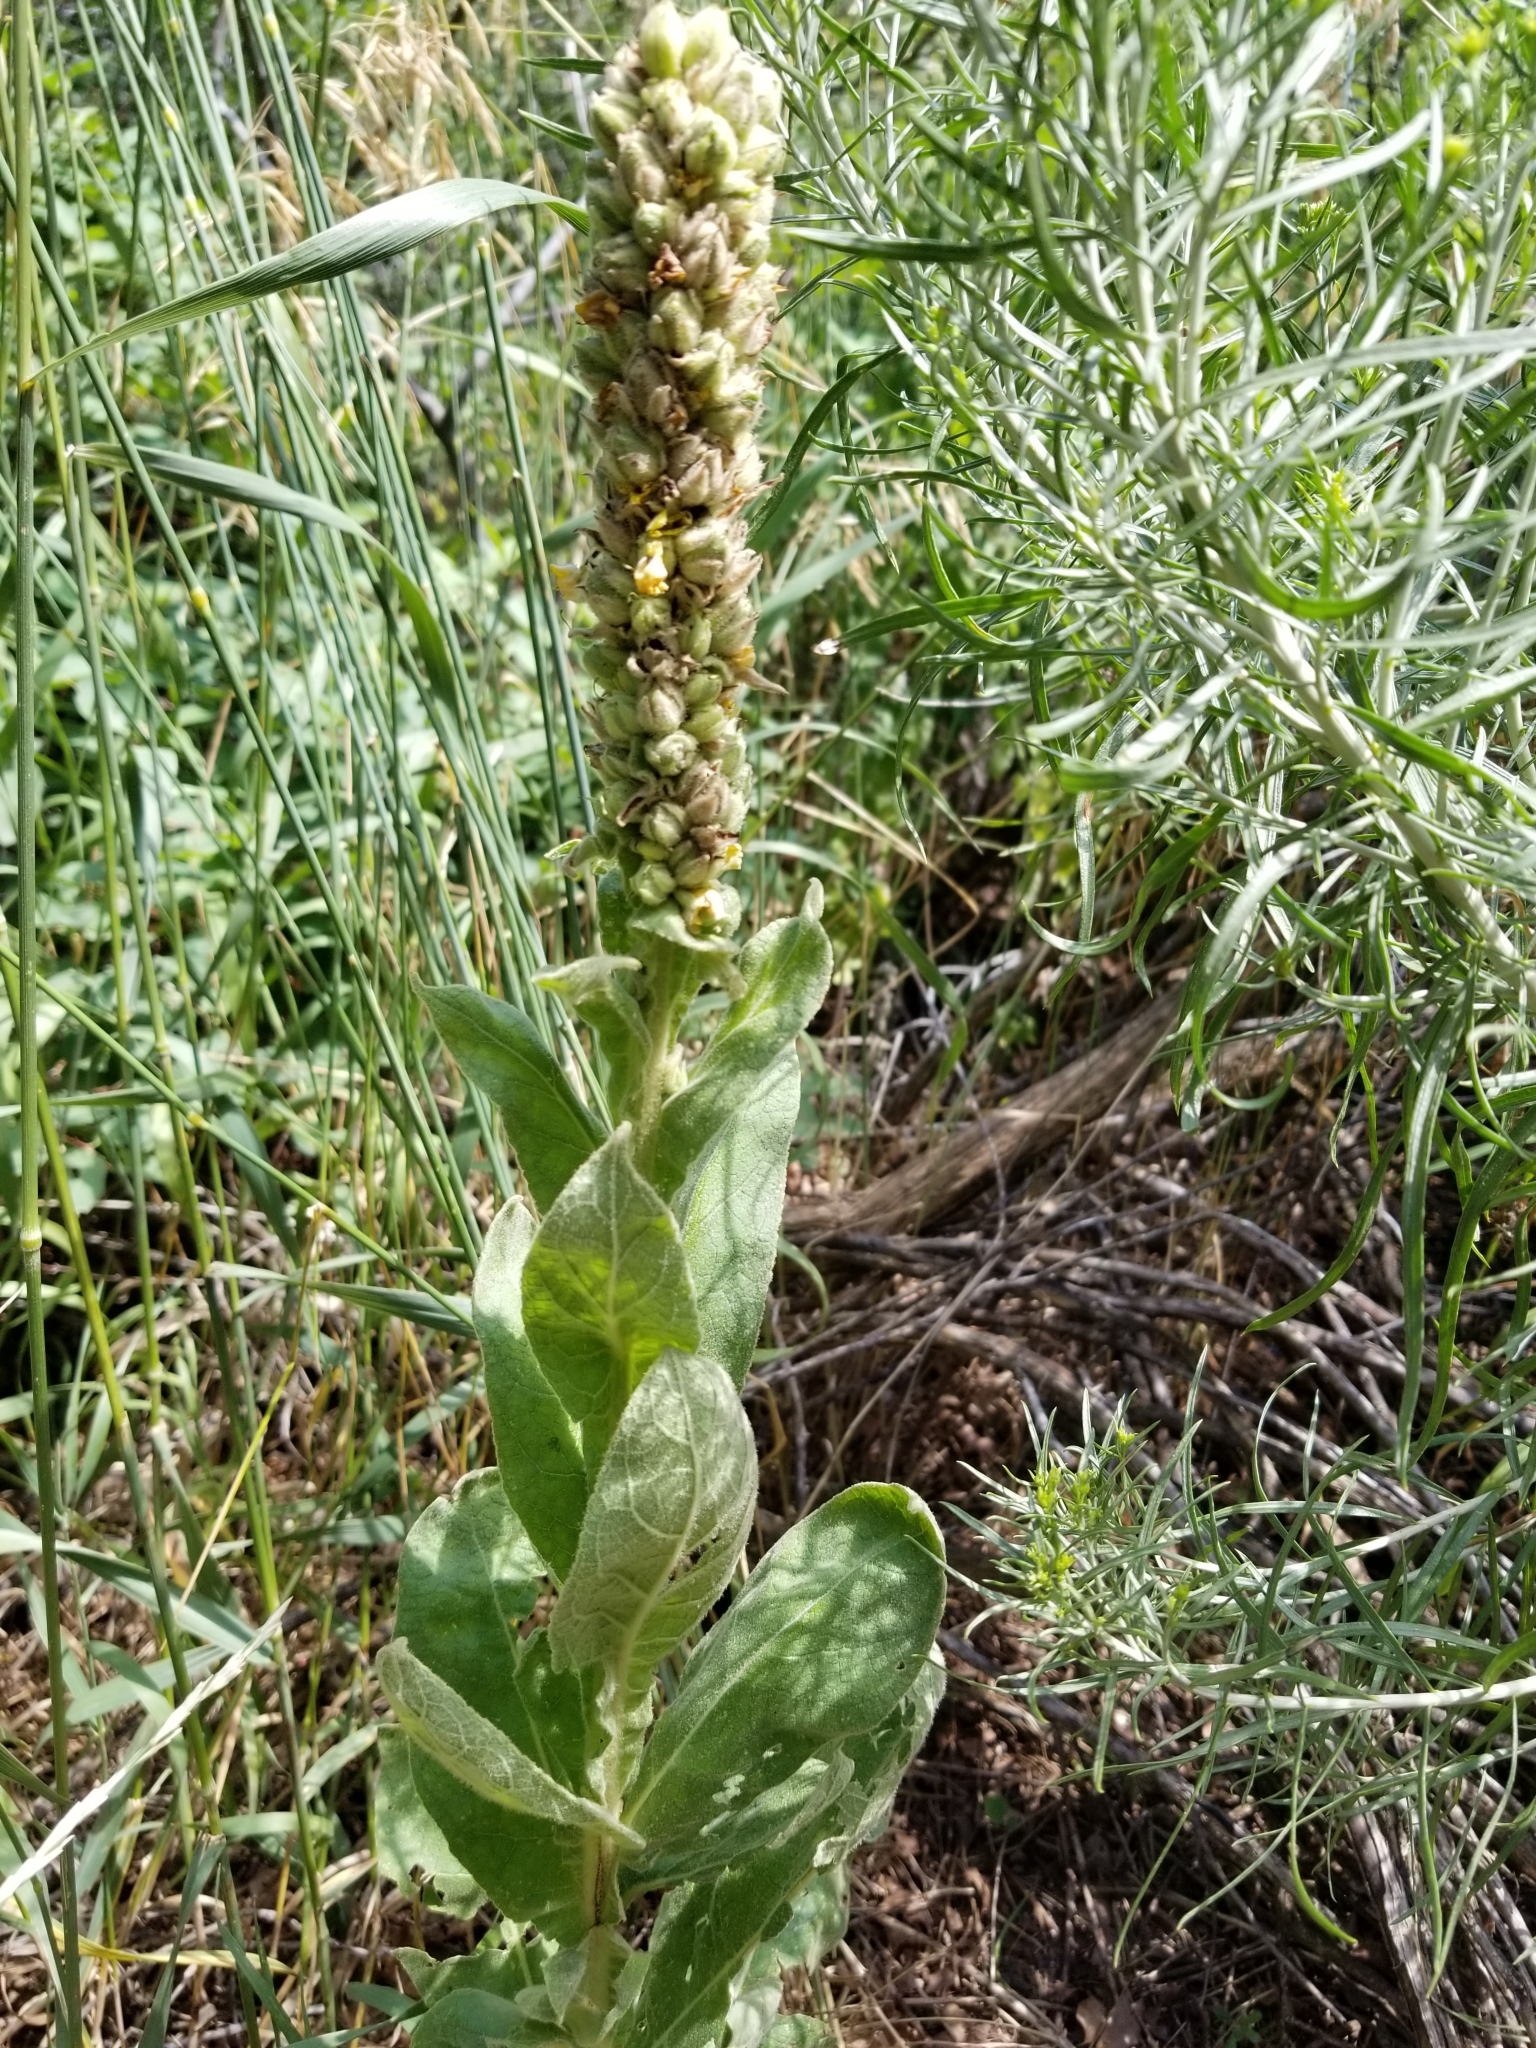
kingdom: Plantae
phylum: Tracheophyta
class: Magnoliopsida
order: Lamiales
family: Scrophulariaceae
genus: Verbascum
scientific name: Verbascum thapsus
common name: Common mullein
